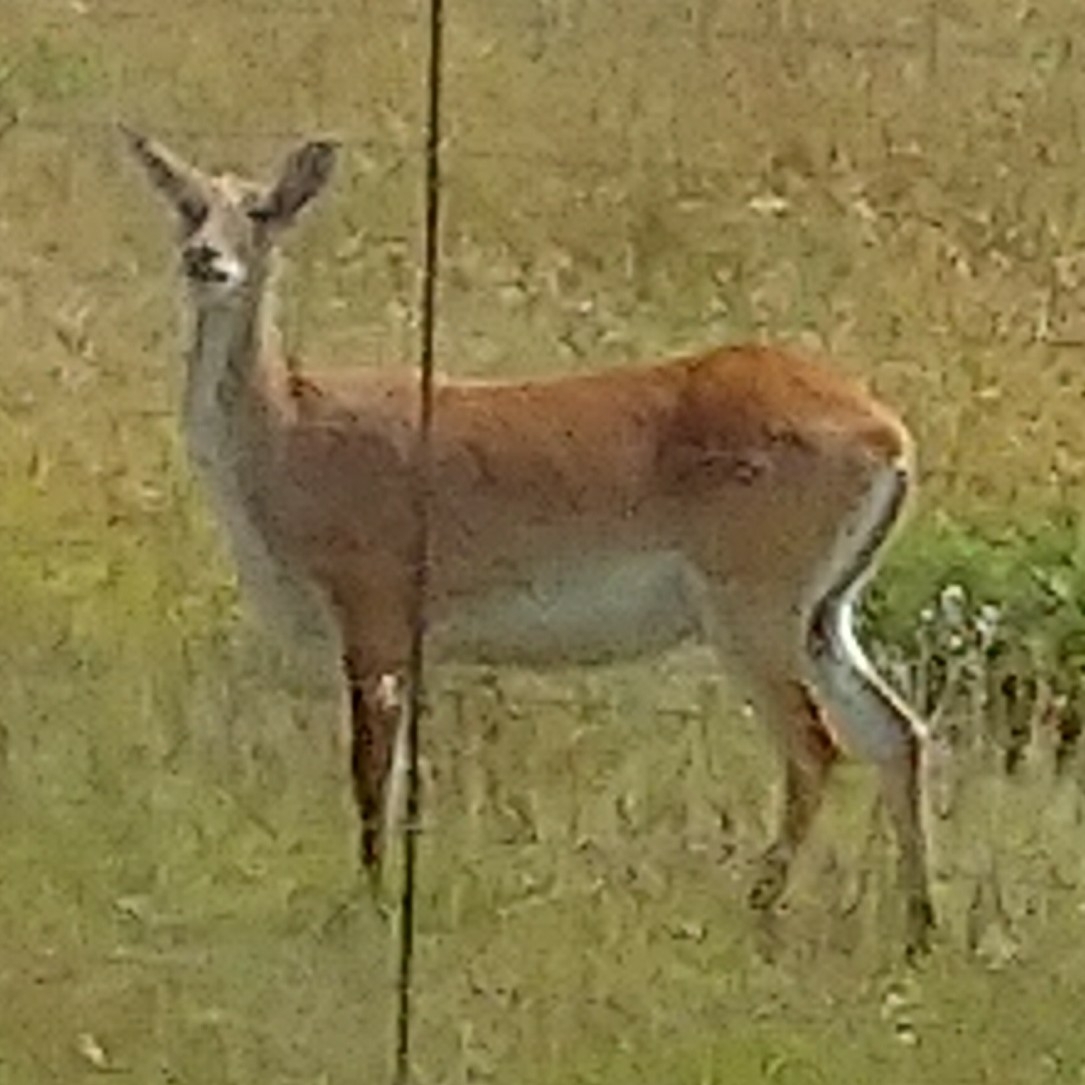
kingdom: Animalia
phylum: Chordata
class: Mammalia
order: Artiodactyla
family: Bovidae
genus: Kobus
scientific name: Kobus leche
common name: Lechwe
